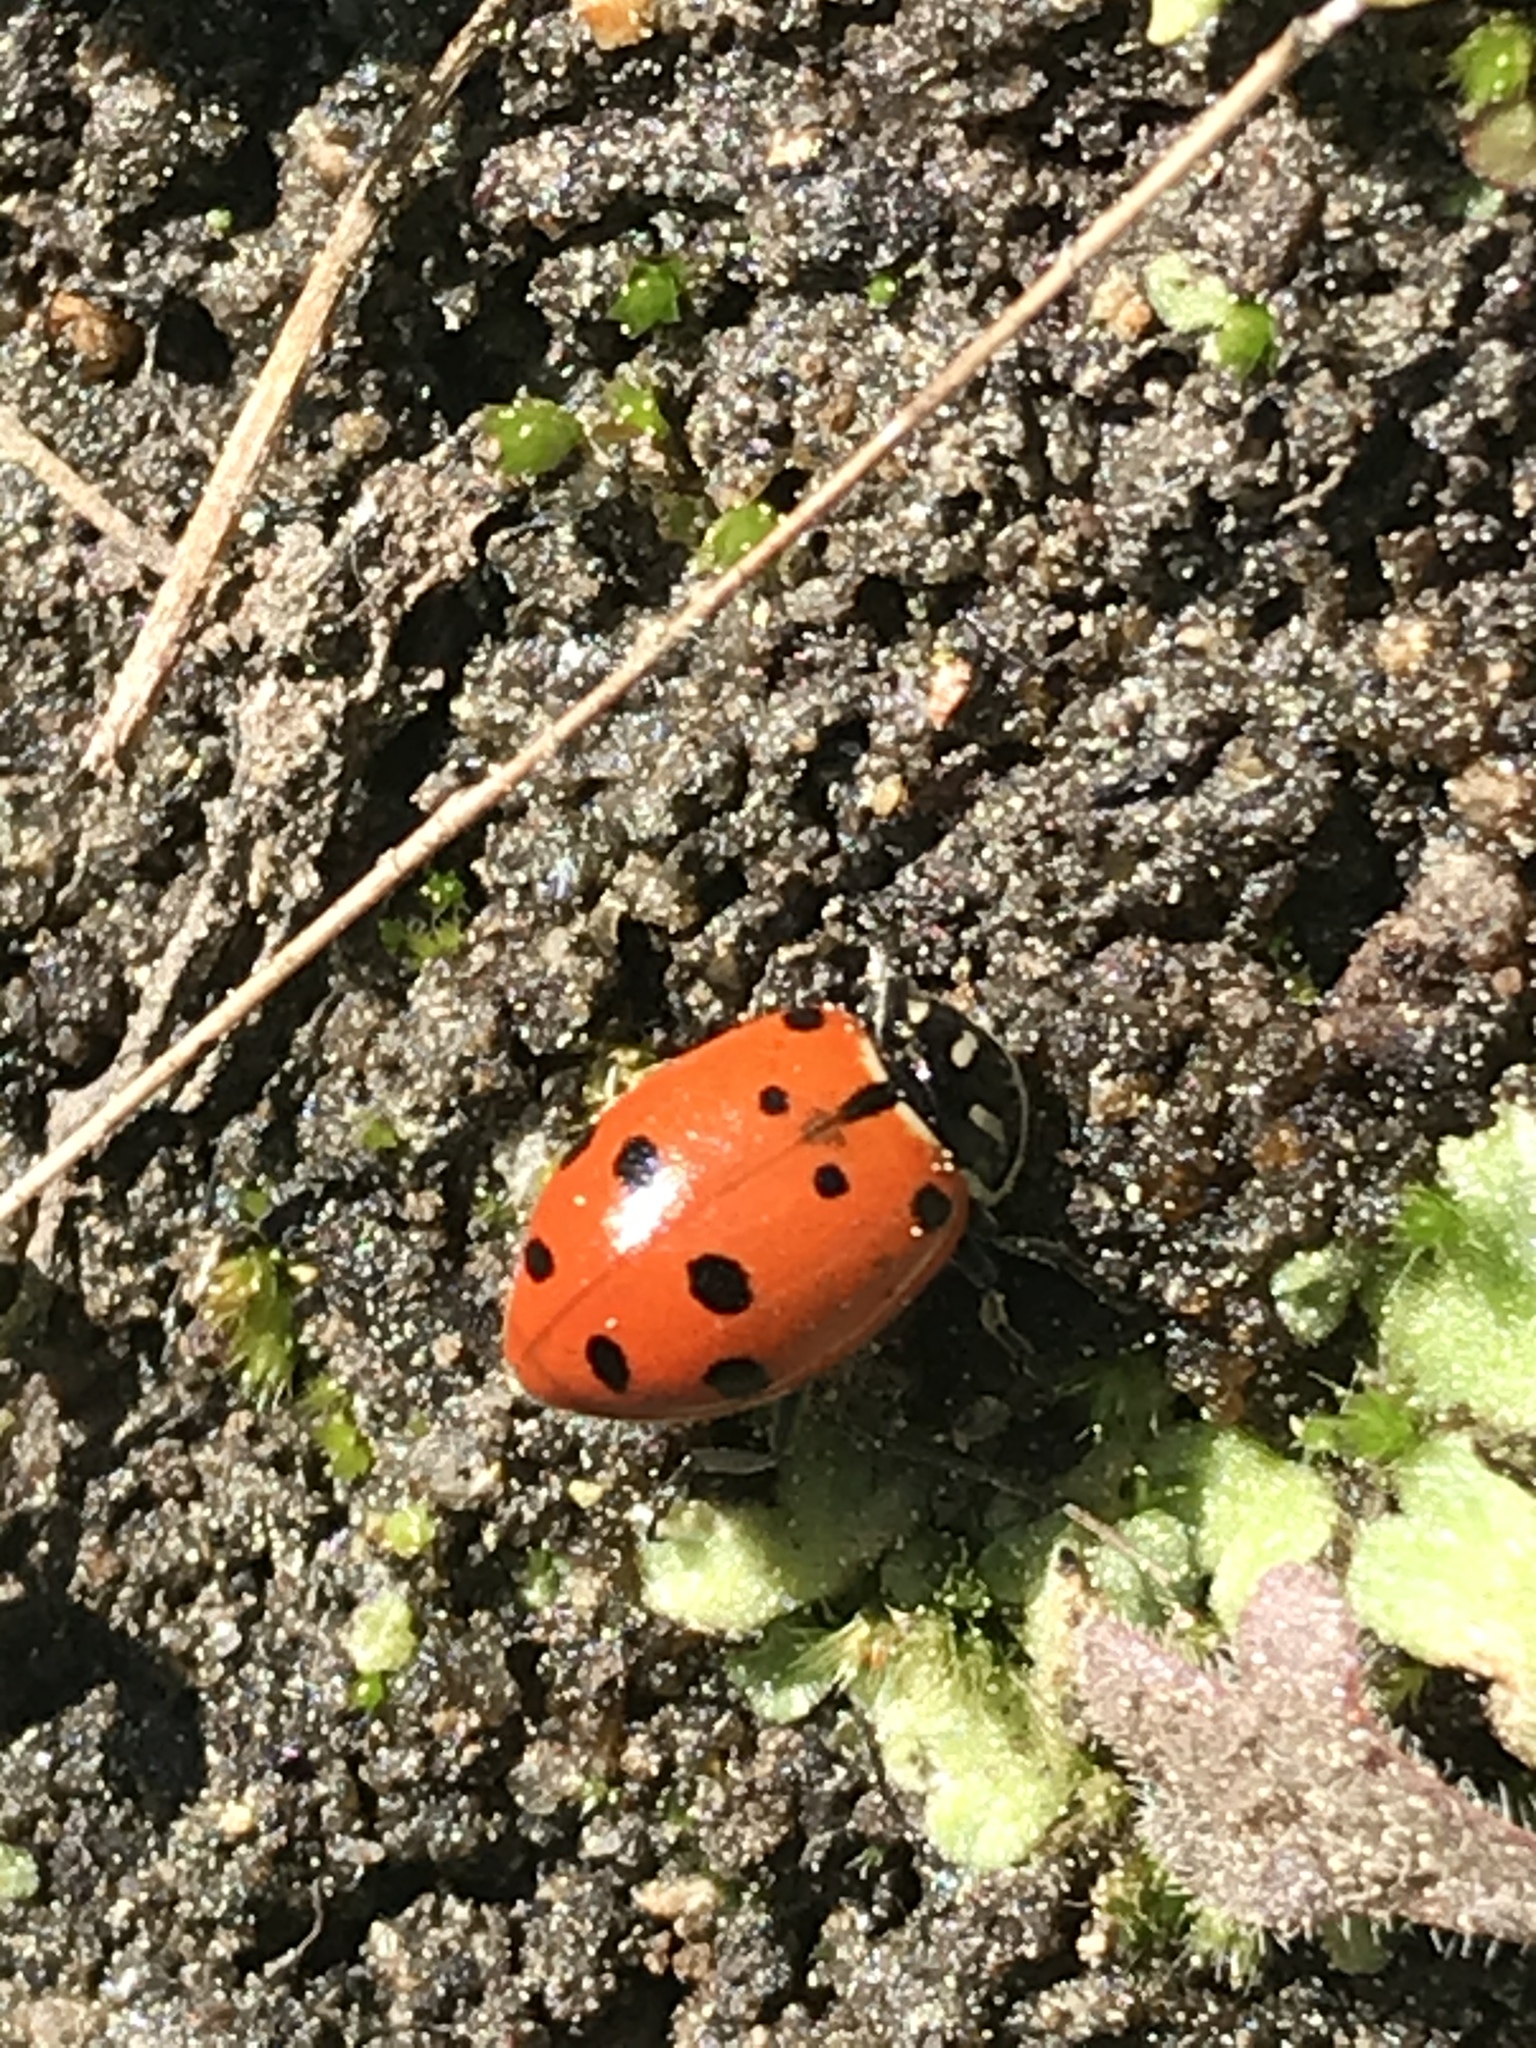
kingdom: Animalia
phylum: Arthropoda
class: Insecta
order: Coleoptera
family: Coccinellidae
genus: Hippodamia
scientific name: Hippodamia convergens
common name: Convergent lady beetle
